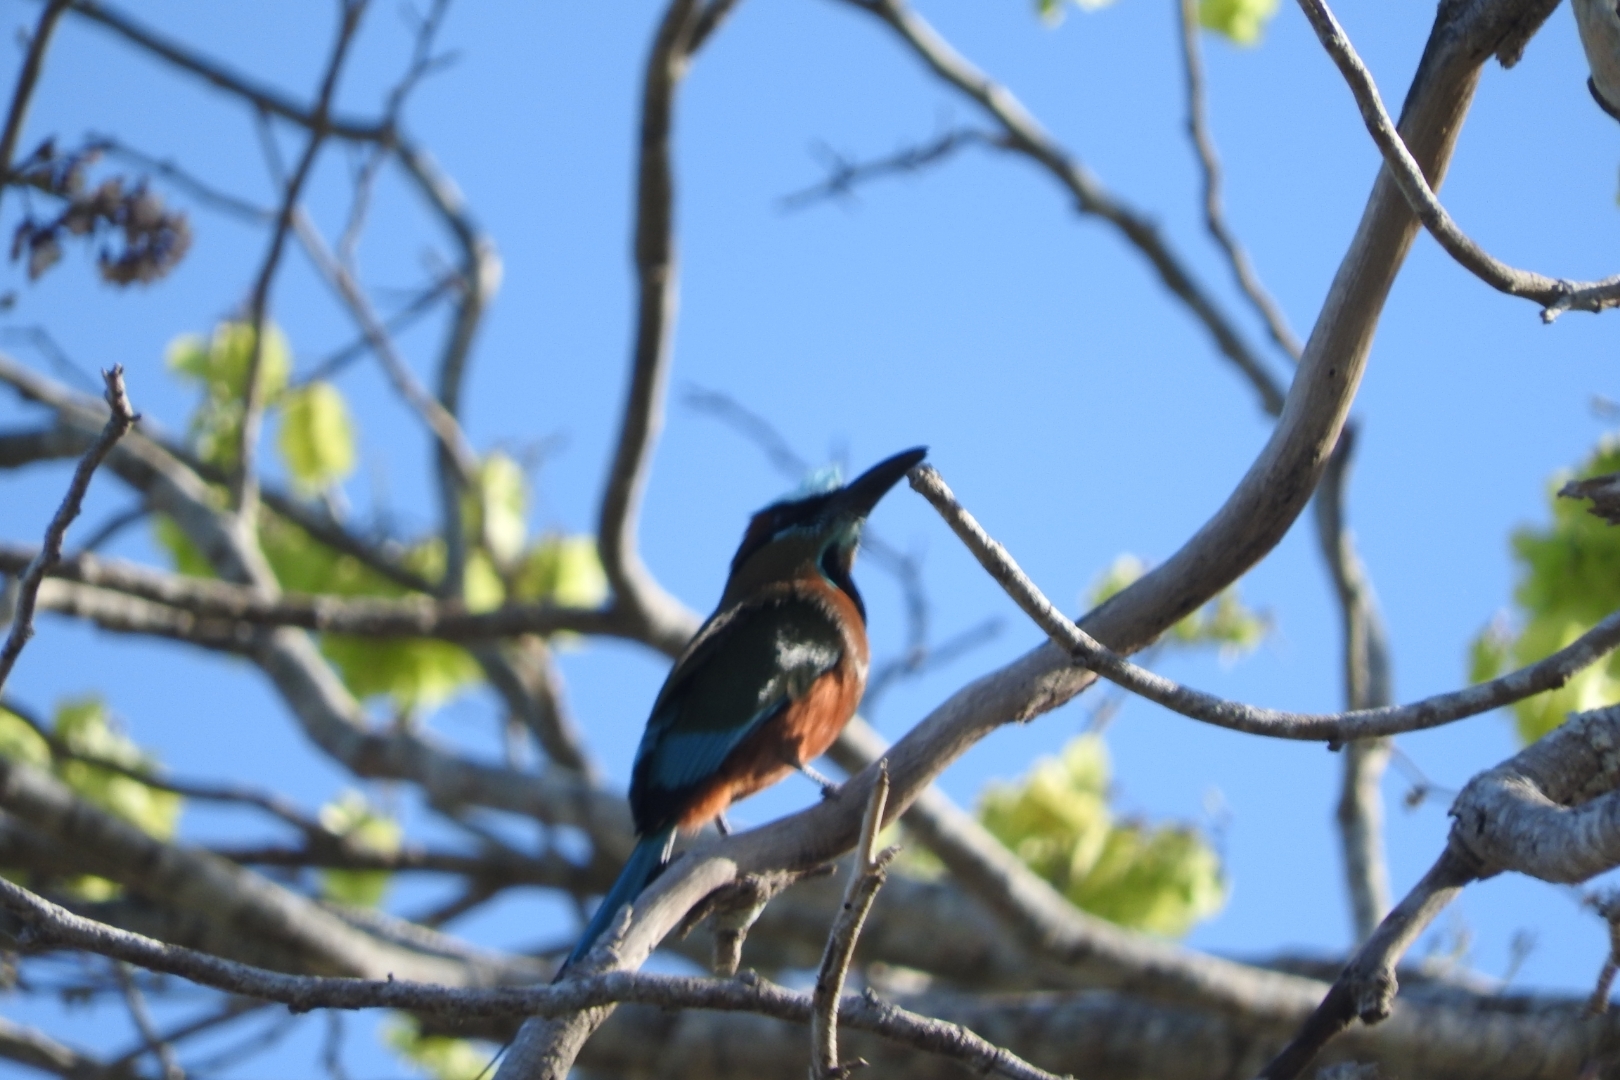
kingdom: Animalia
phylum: Chordata
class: Aves
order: Coraciiformes
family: Momotidae
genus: Eumomota
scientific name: Eumomota superciliosa
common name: Turquoise-browed motmot
